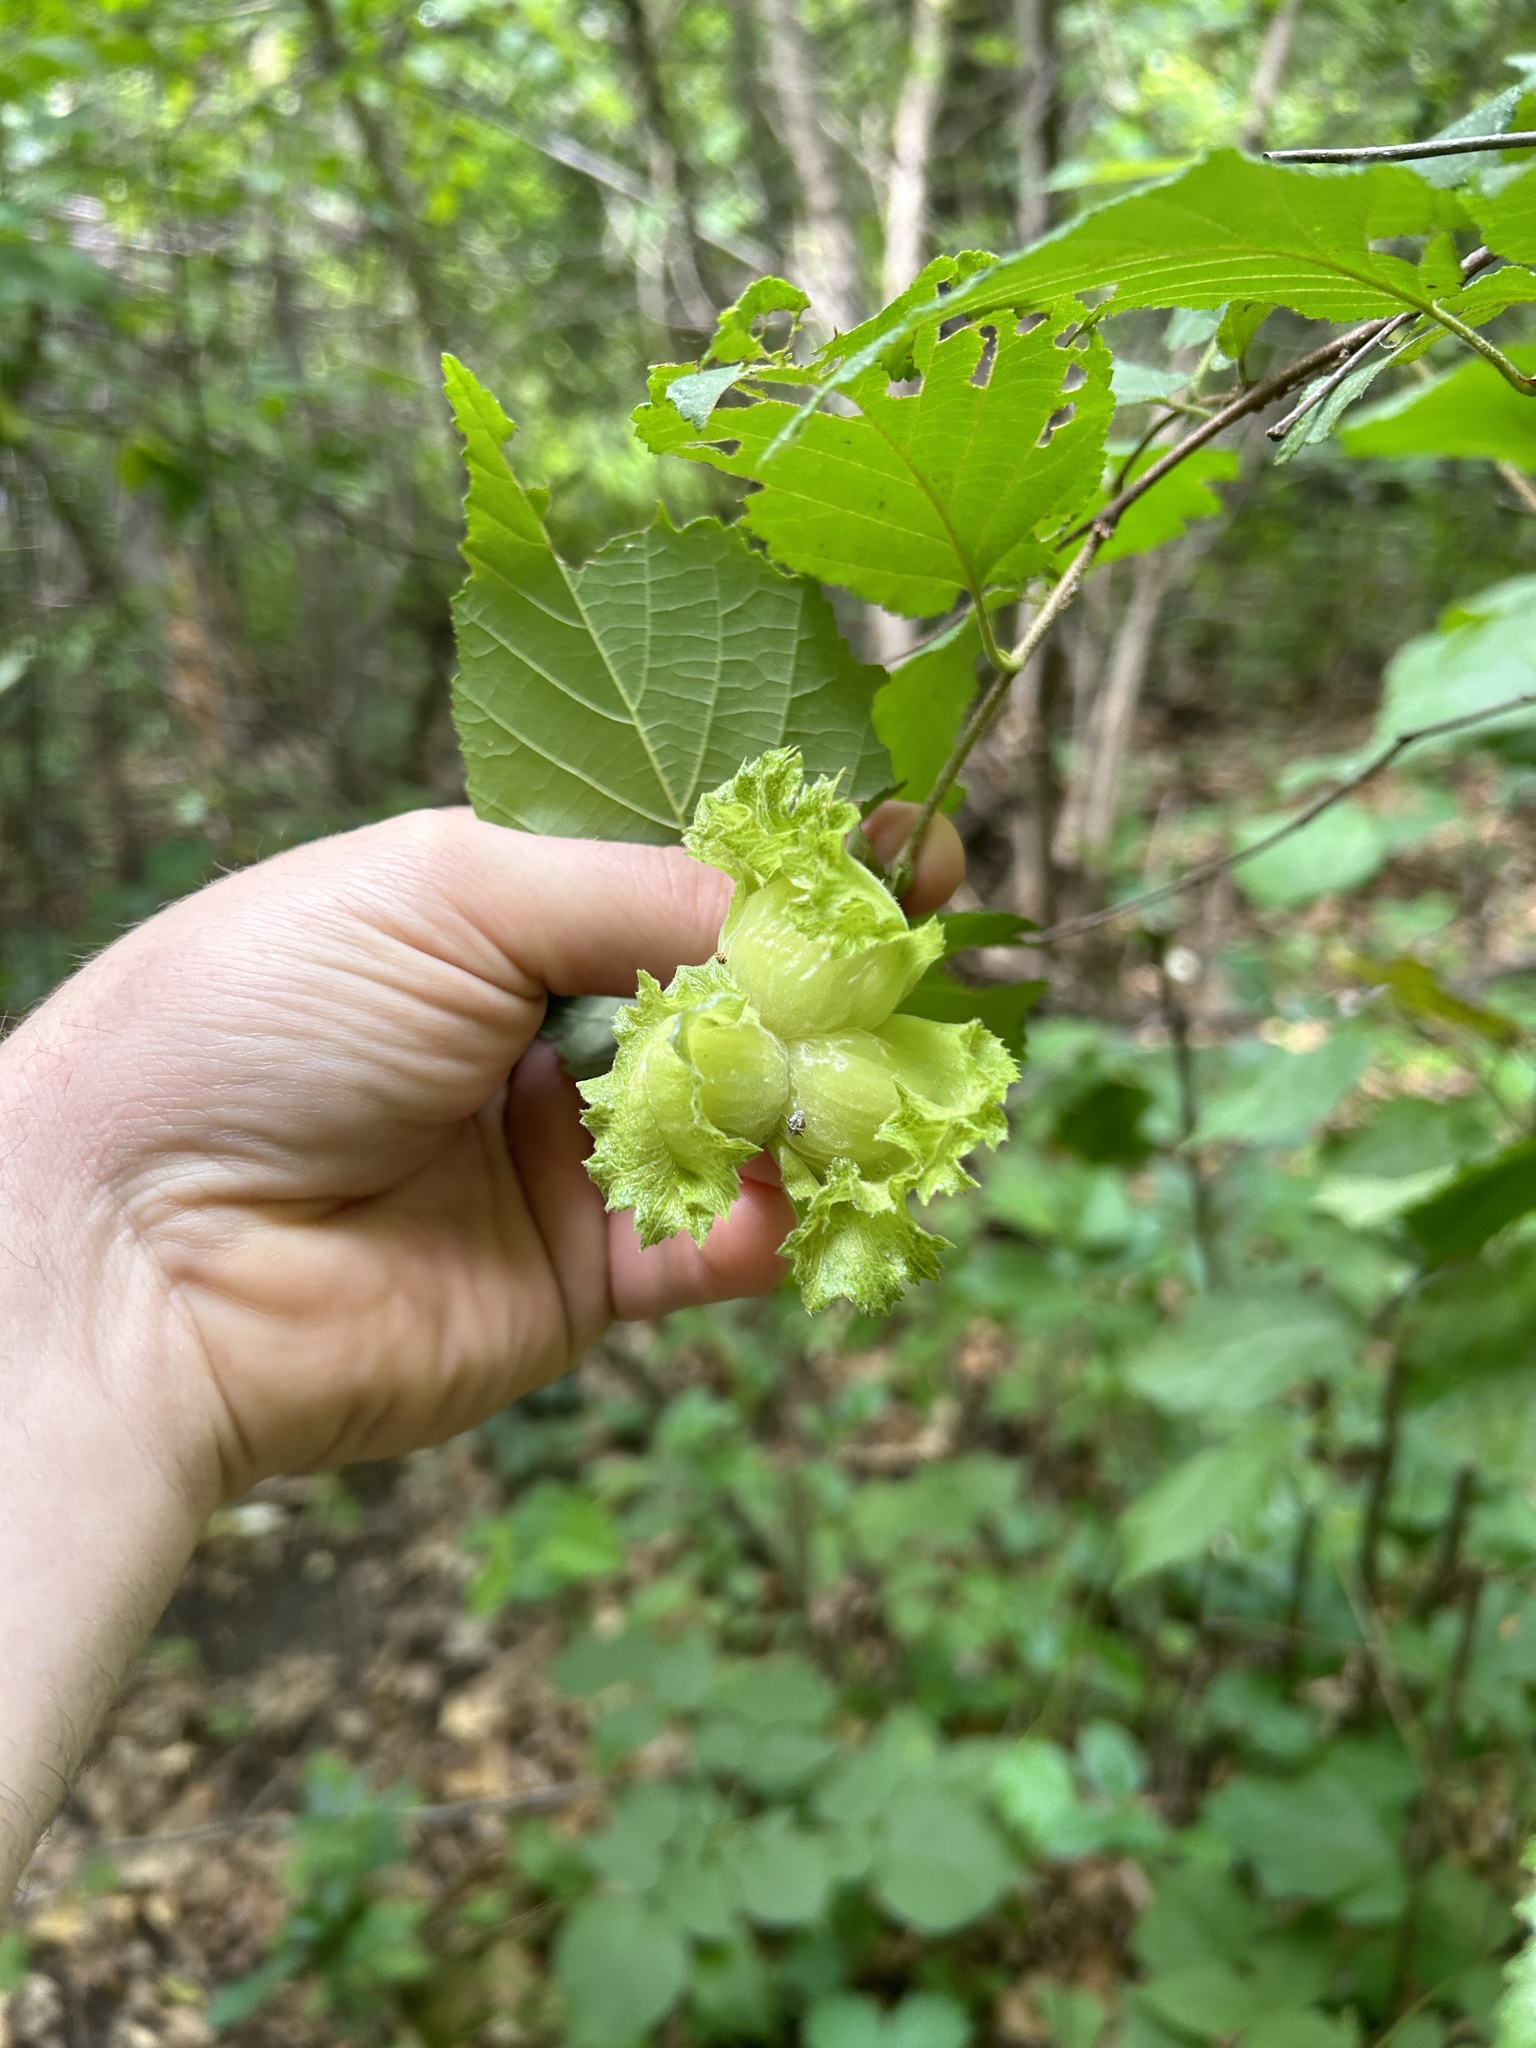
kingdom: Plantae
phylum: Tracheophyta
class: Magnoliopsida
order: Fagales
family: Betulaceae
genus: Corylus
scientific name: Corylus americana
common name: American hazel
